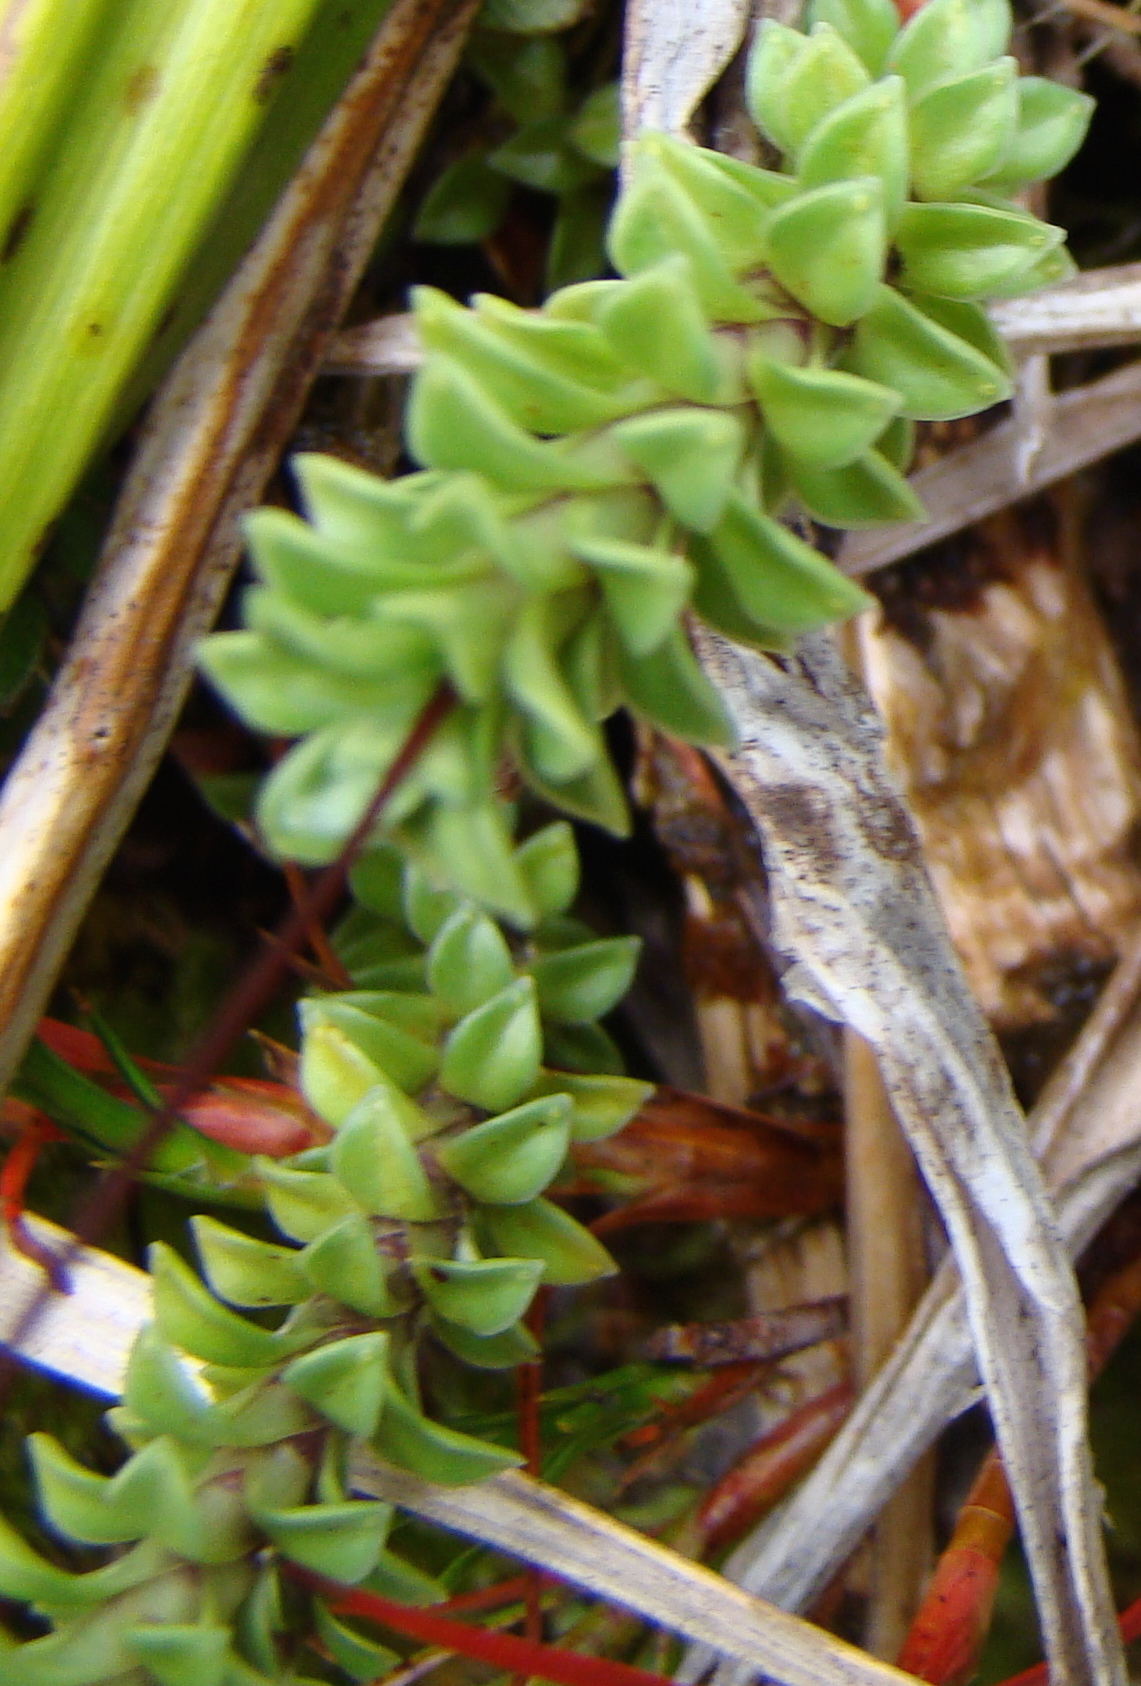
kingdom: Plantae
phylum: Tracheophyta
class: Magnoliopsida
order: Asterales
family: Stylidiaceae
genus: Forstera
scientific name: Forstera sedifolia
